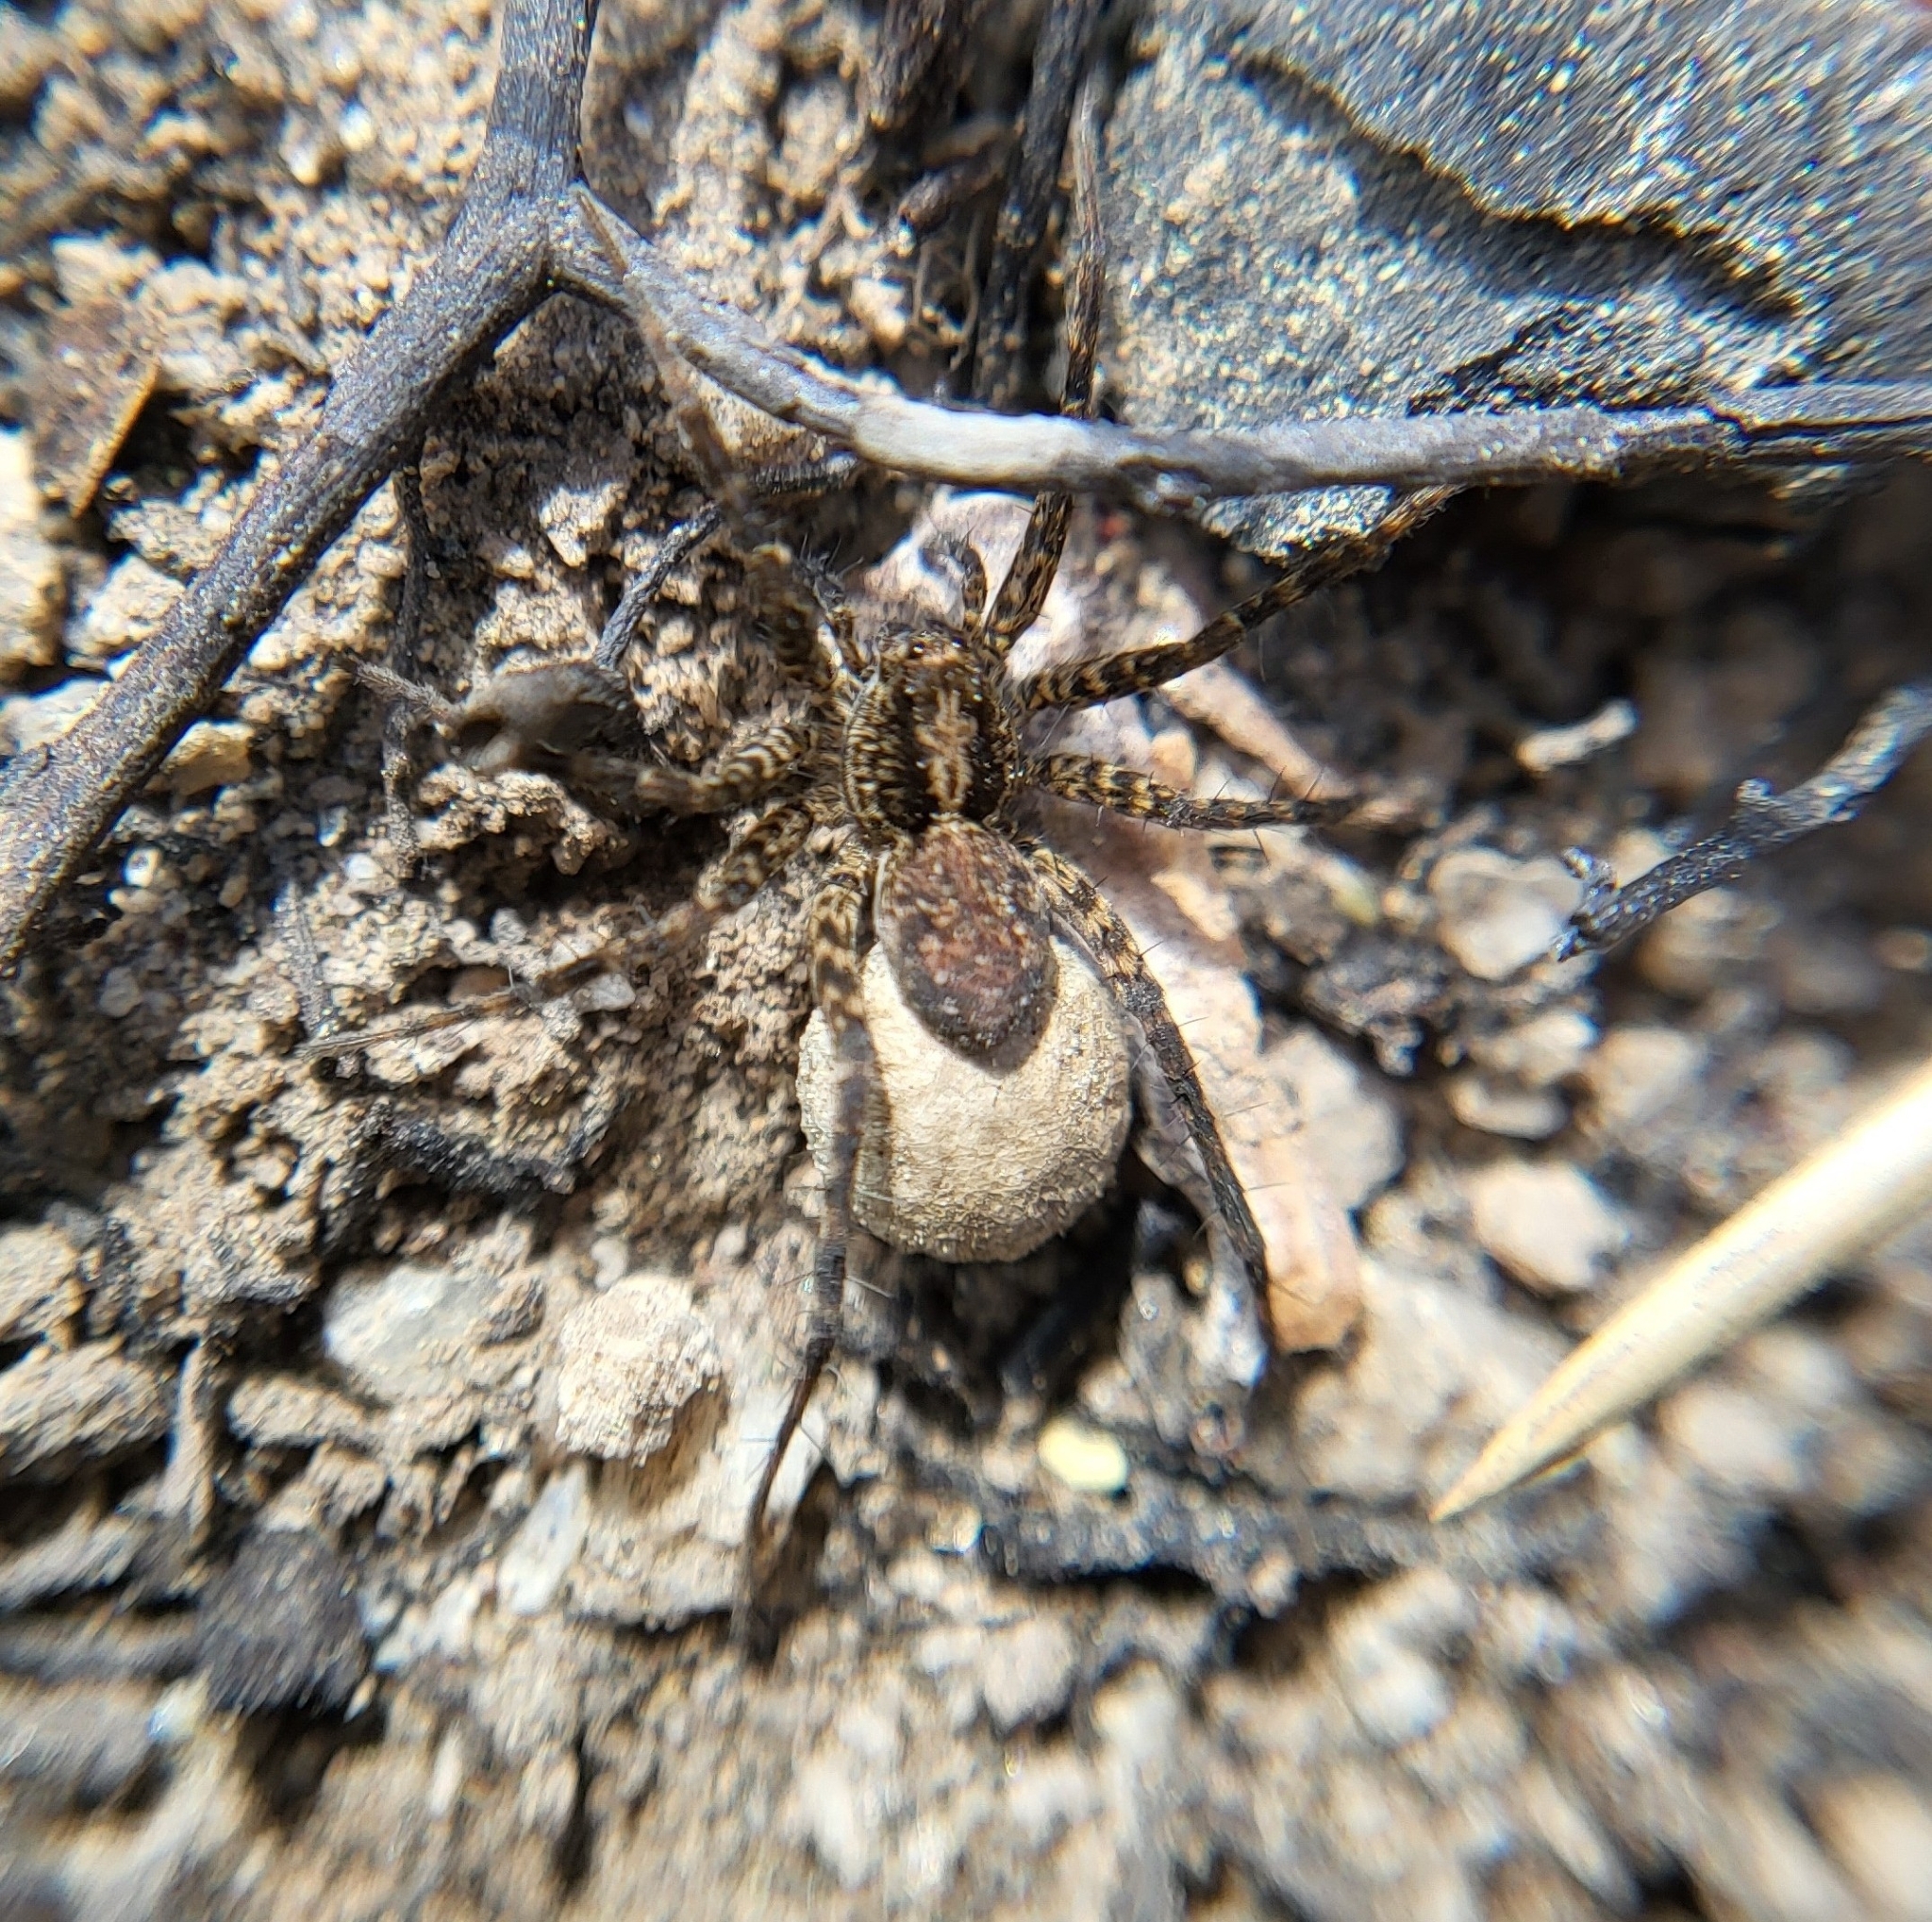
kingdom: Animalia
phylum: Arthropoda
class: Arachnida
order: Araneae
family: Lycosidae
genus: Pardosa
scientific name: Pardosa
